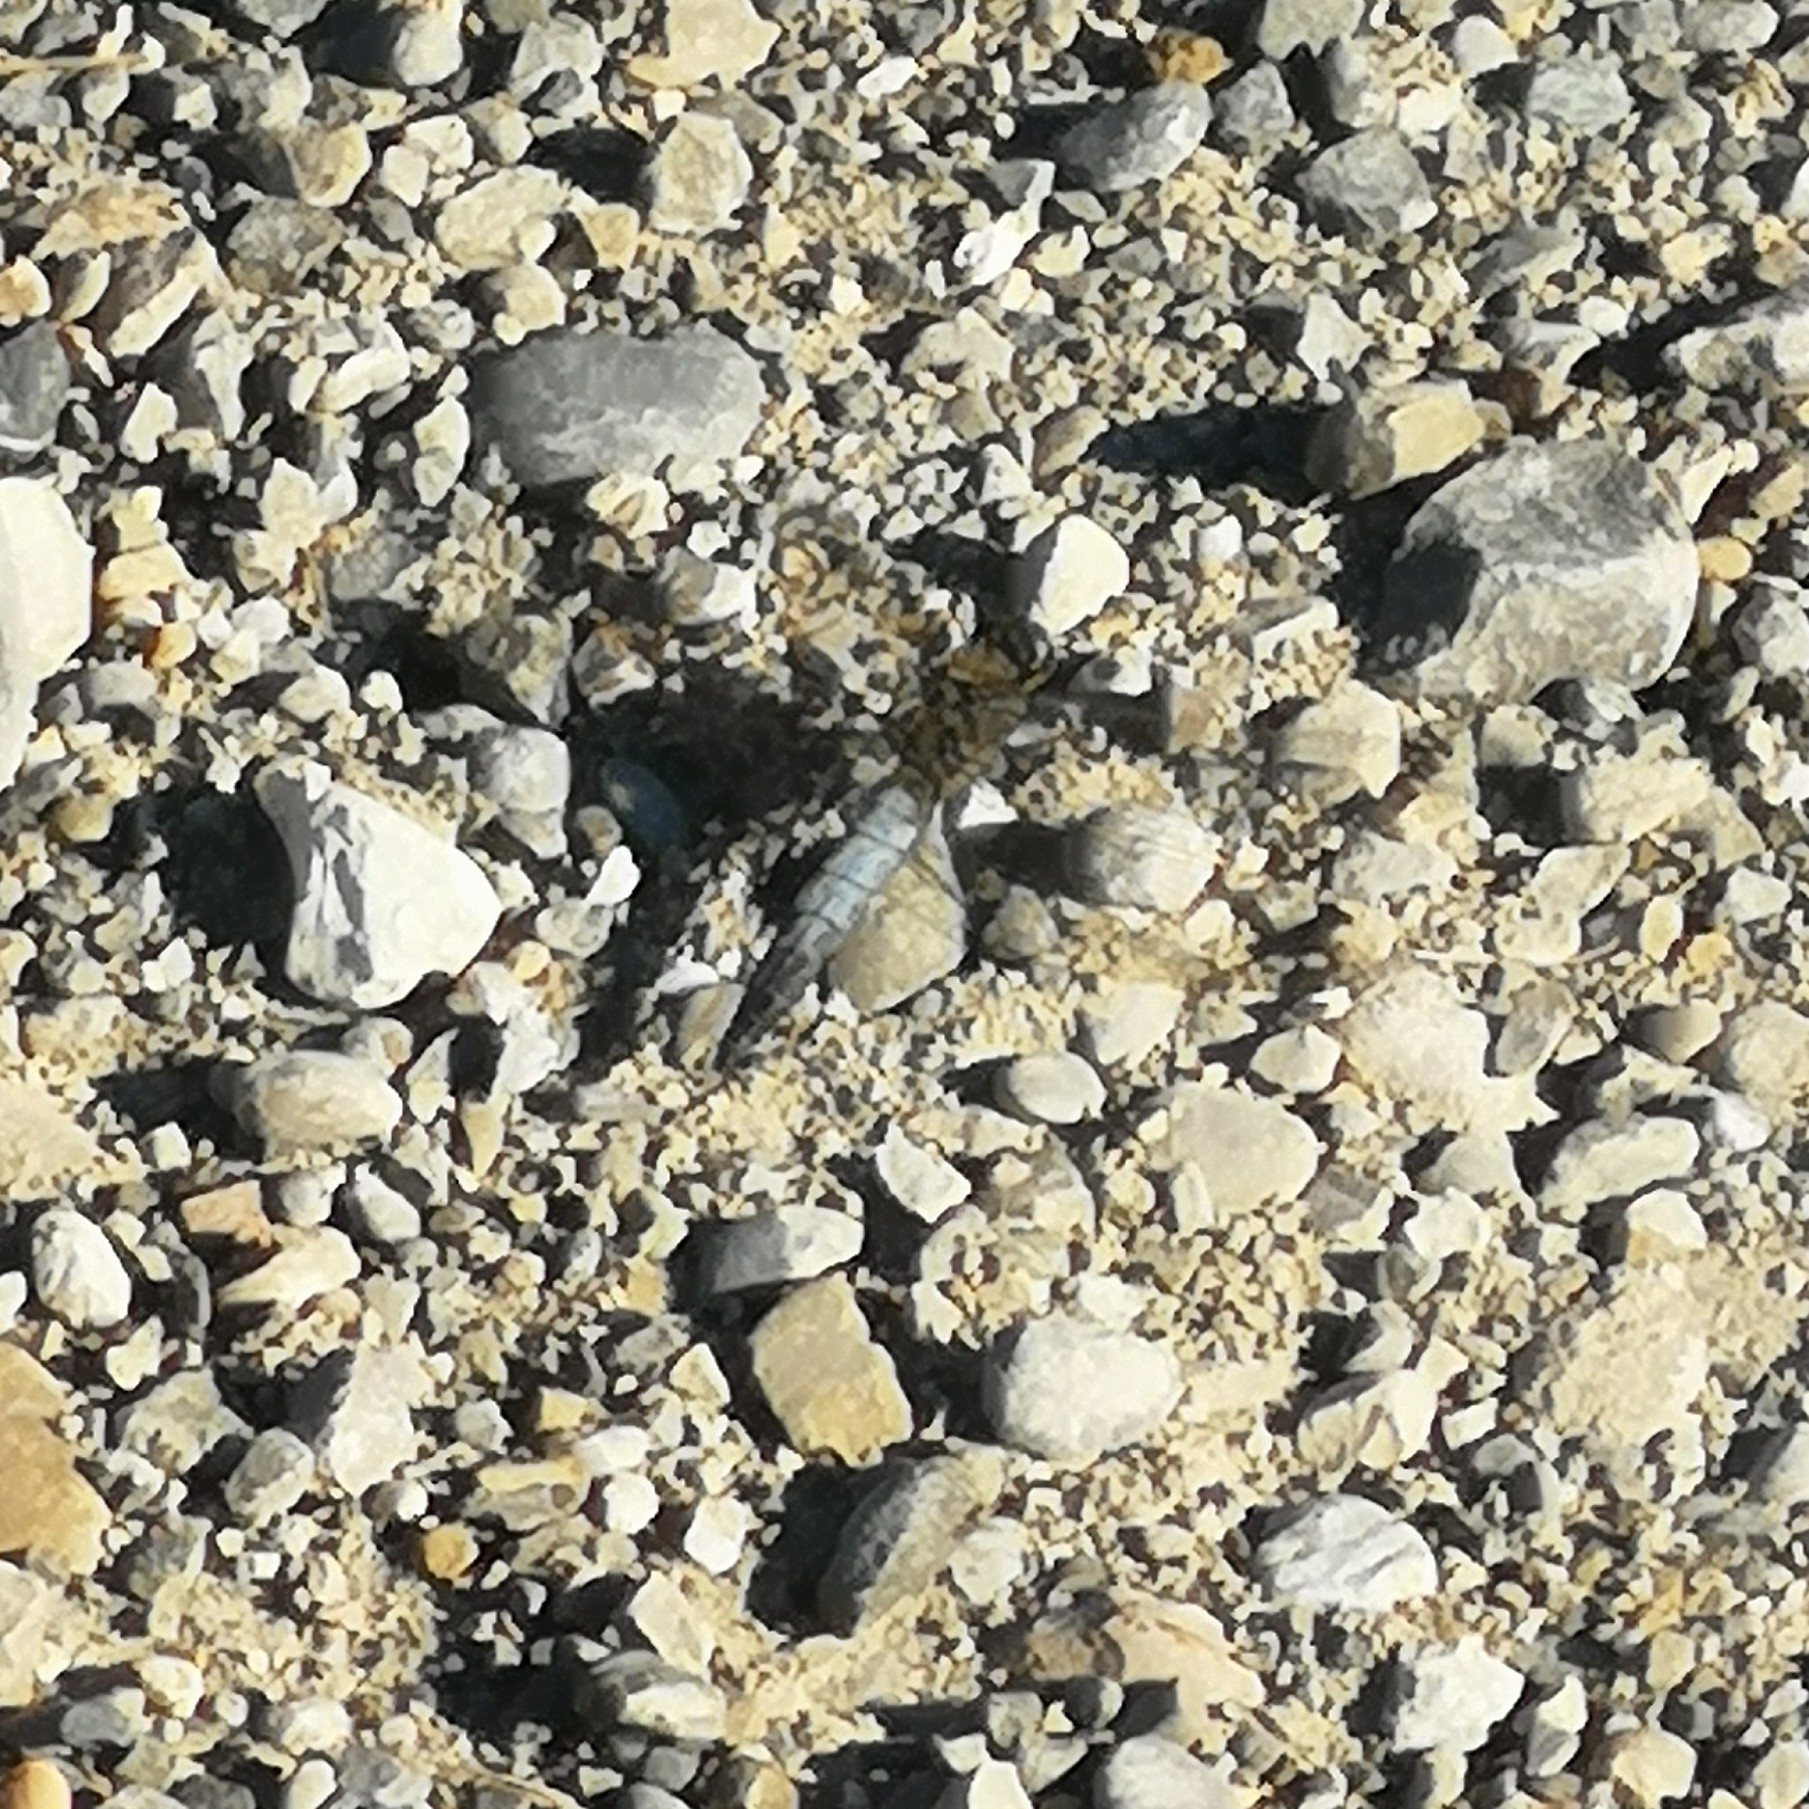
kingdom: Animalia
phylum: Arthropoda
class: Insecta
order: Odonata
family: Libellulidae
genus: Orthetrum
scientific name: Orthetrum cancellatum
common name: Black-tailed skimmer
